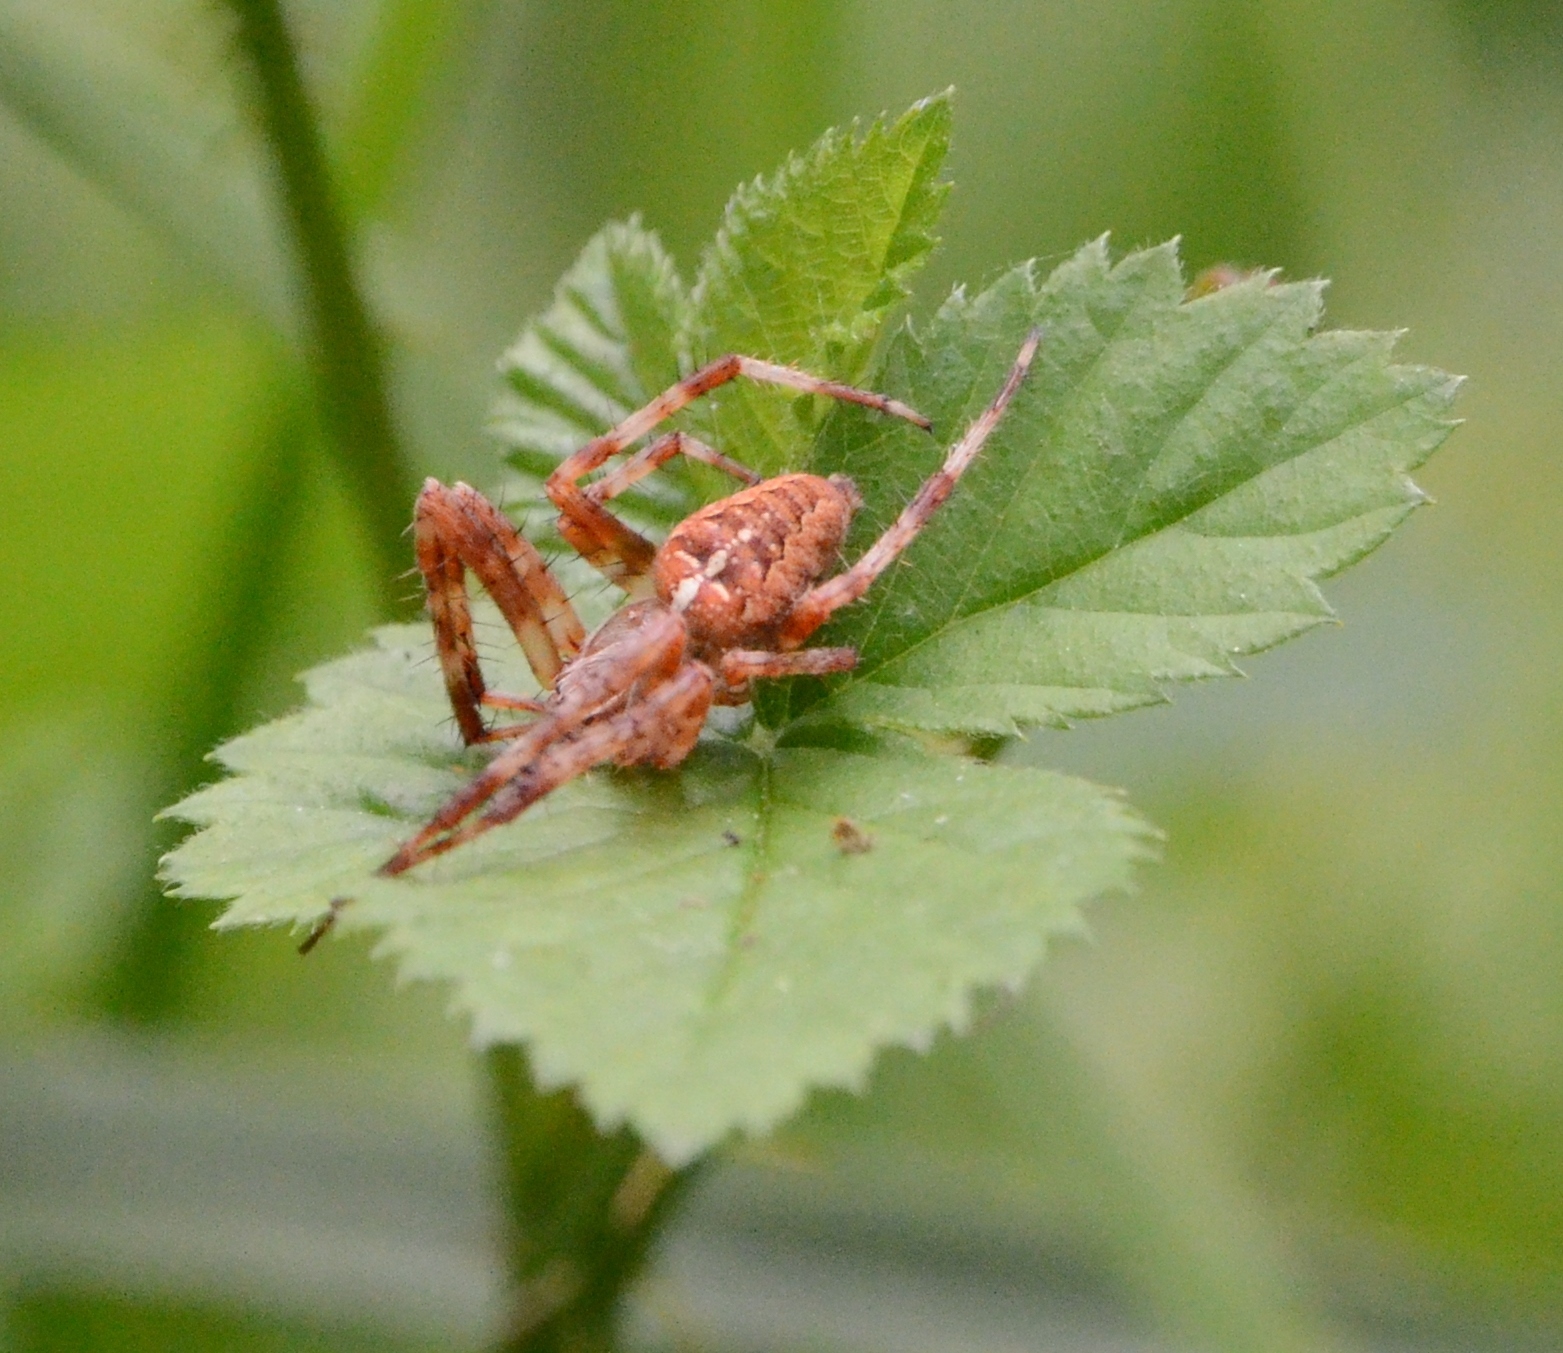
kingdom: Animalia
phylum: Arthropoda
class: Arachnida
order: Araneae
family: Araneidae
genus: Araneus
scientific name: Araneus diadematus
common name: Cross orbweaver
